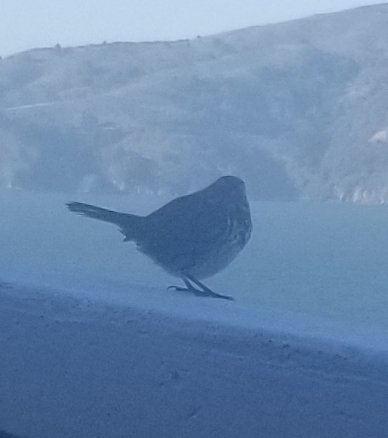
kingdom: Animalia
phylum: Chordata
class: Aves
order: Passeriformes
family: Passerellidae
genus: Melospiza
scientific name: Melospiza melodia
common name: Song sparrow
